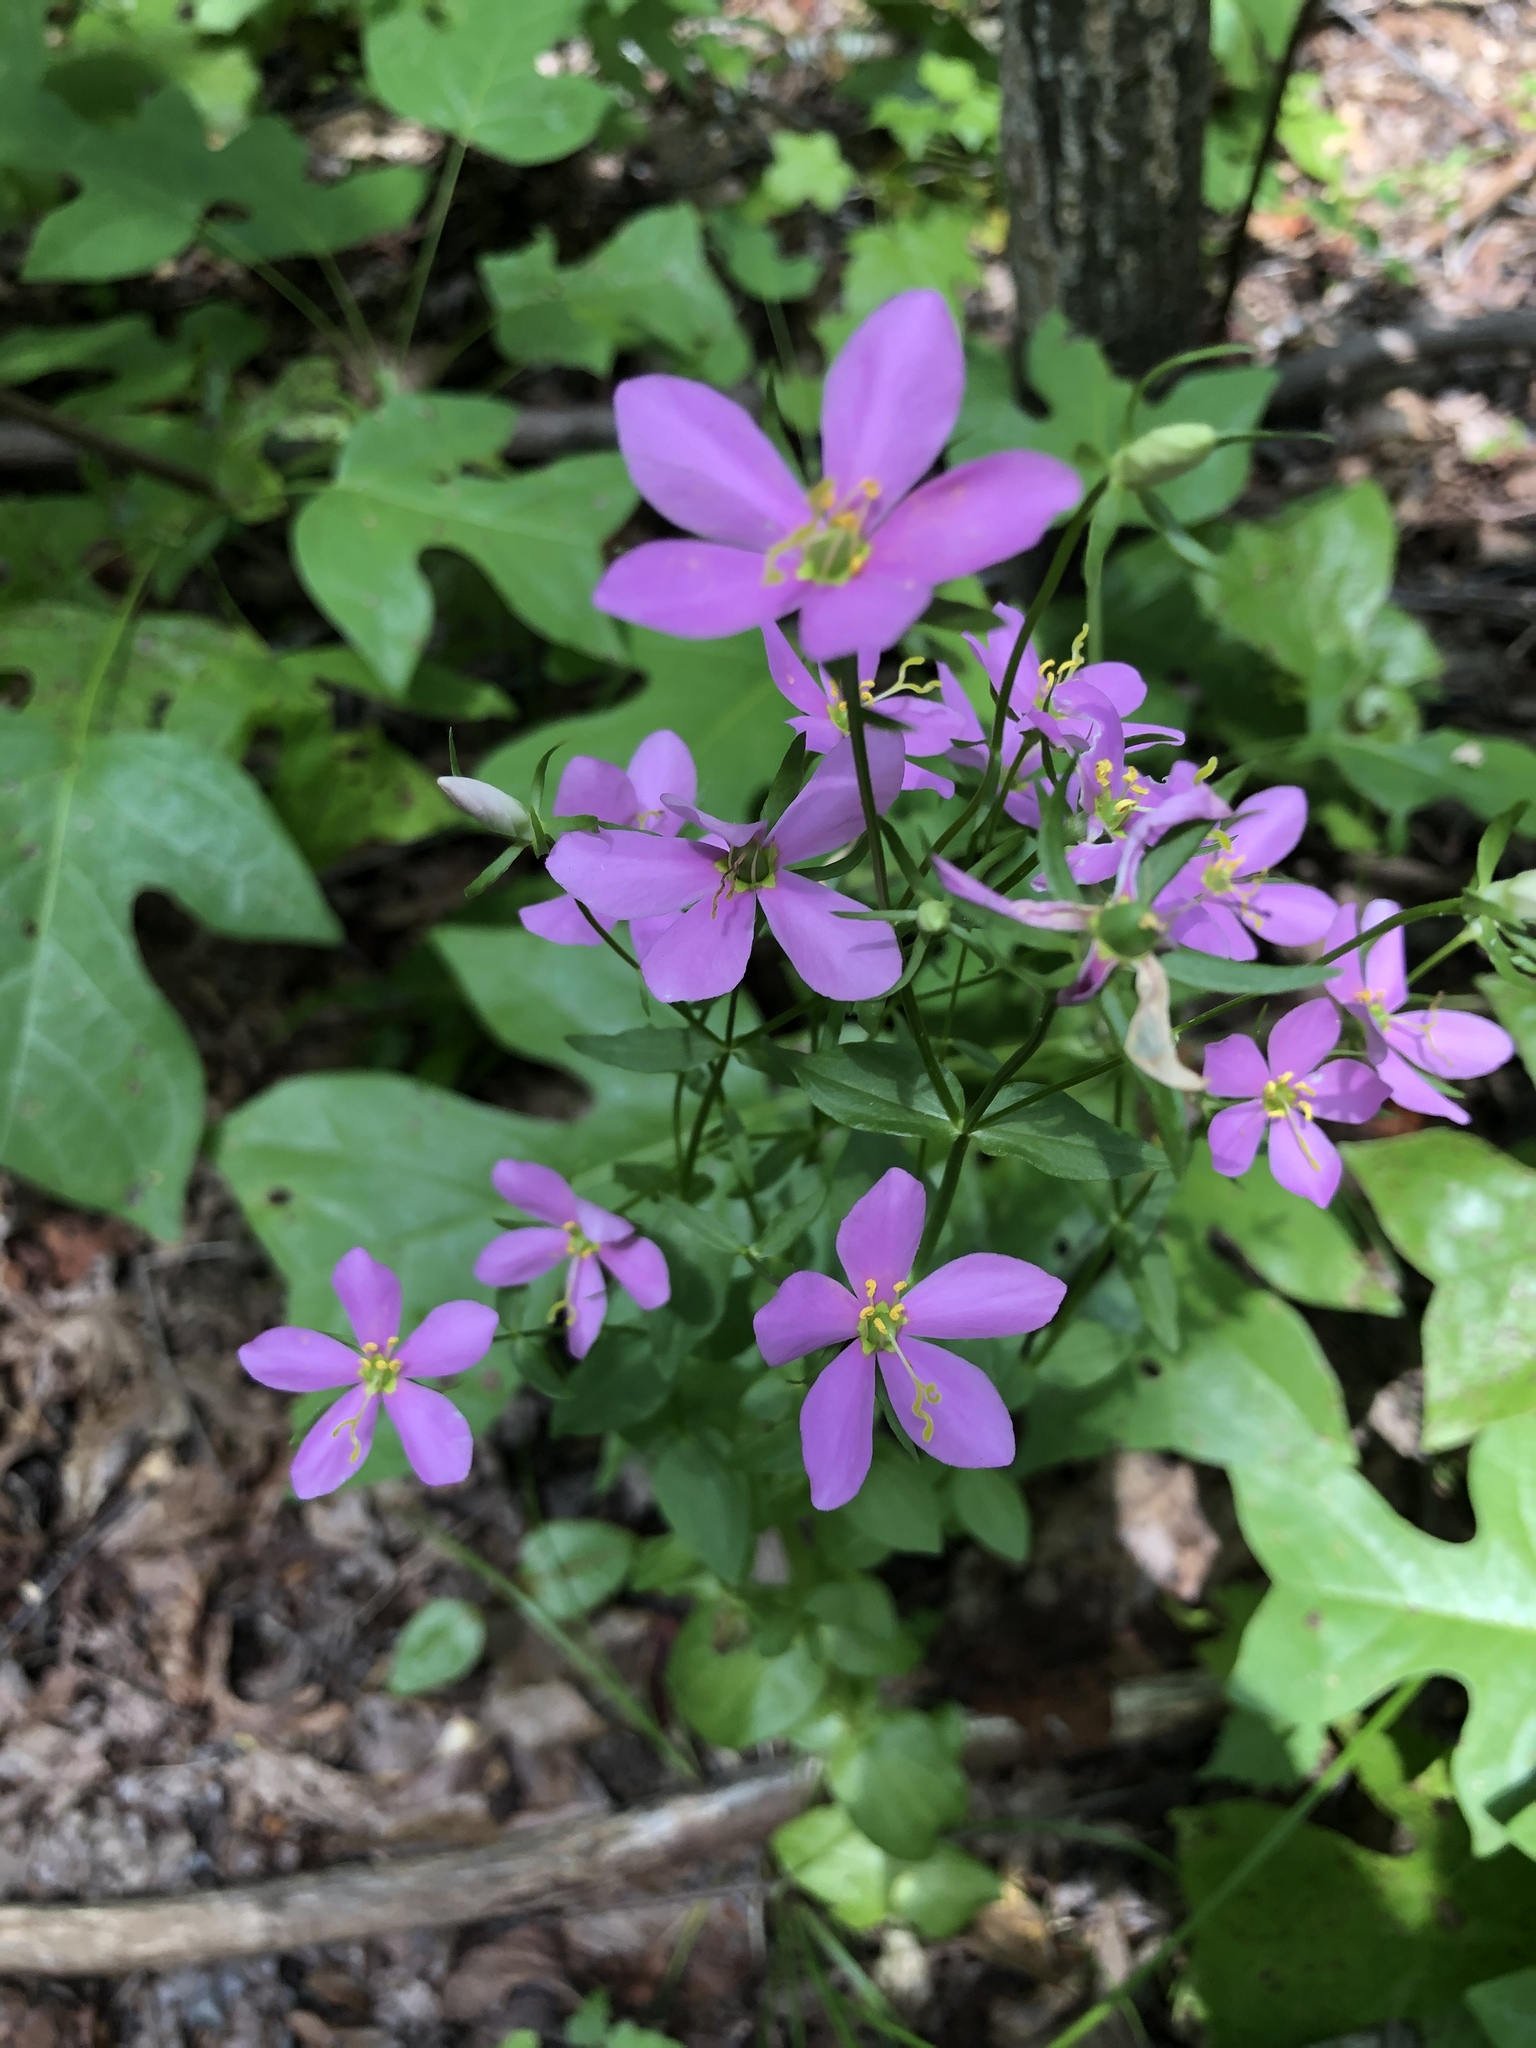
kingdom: Plantae
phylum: Tracheophyta
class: Magnoliopsida
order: Gentianales
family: Gentianaceae
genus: Sabatia
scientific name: Sabatia angularis
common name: Rose-pink
